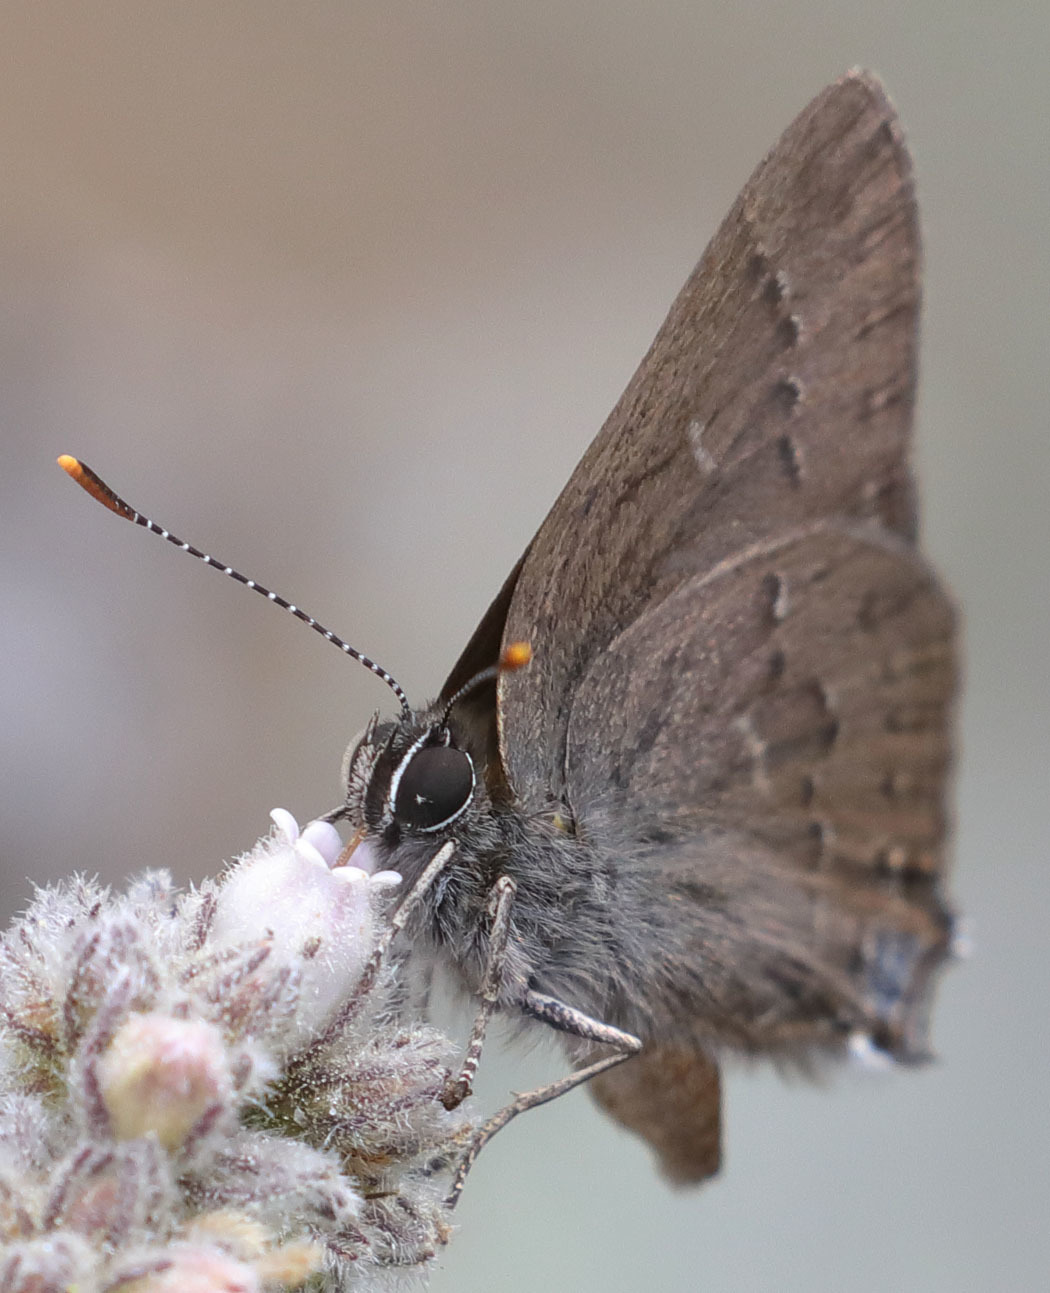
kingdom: Animalia
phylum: Arthropoda
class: Insecta
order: Lepidoptera
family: Lycaenidae
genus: Strymon
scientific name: Strymon saepium
